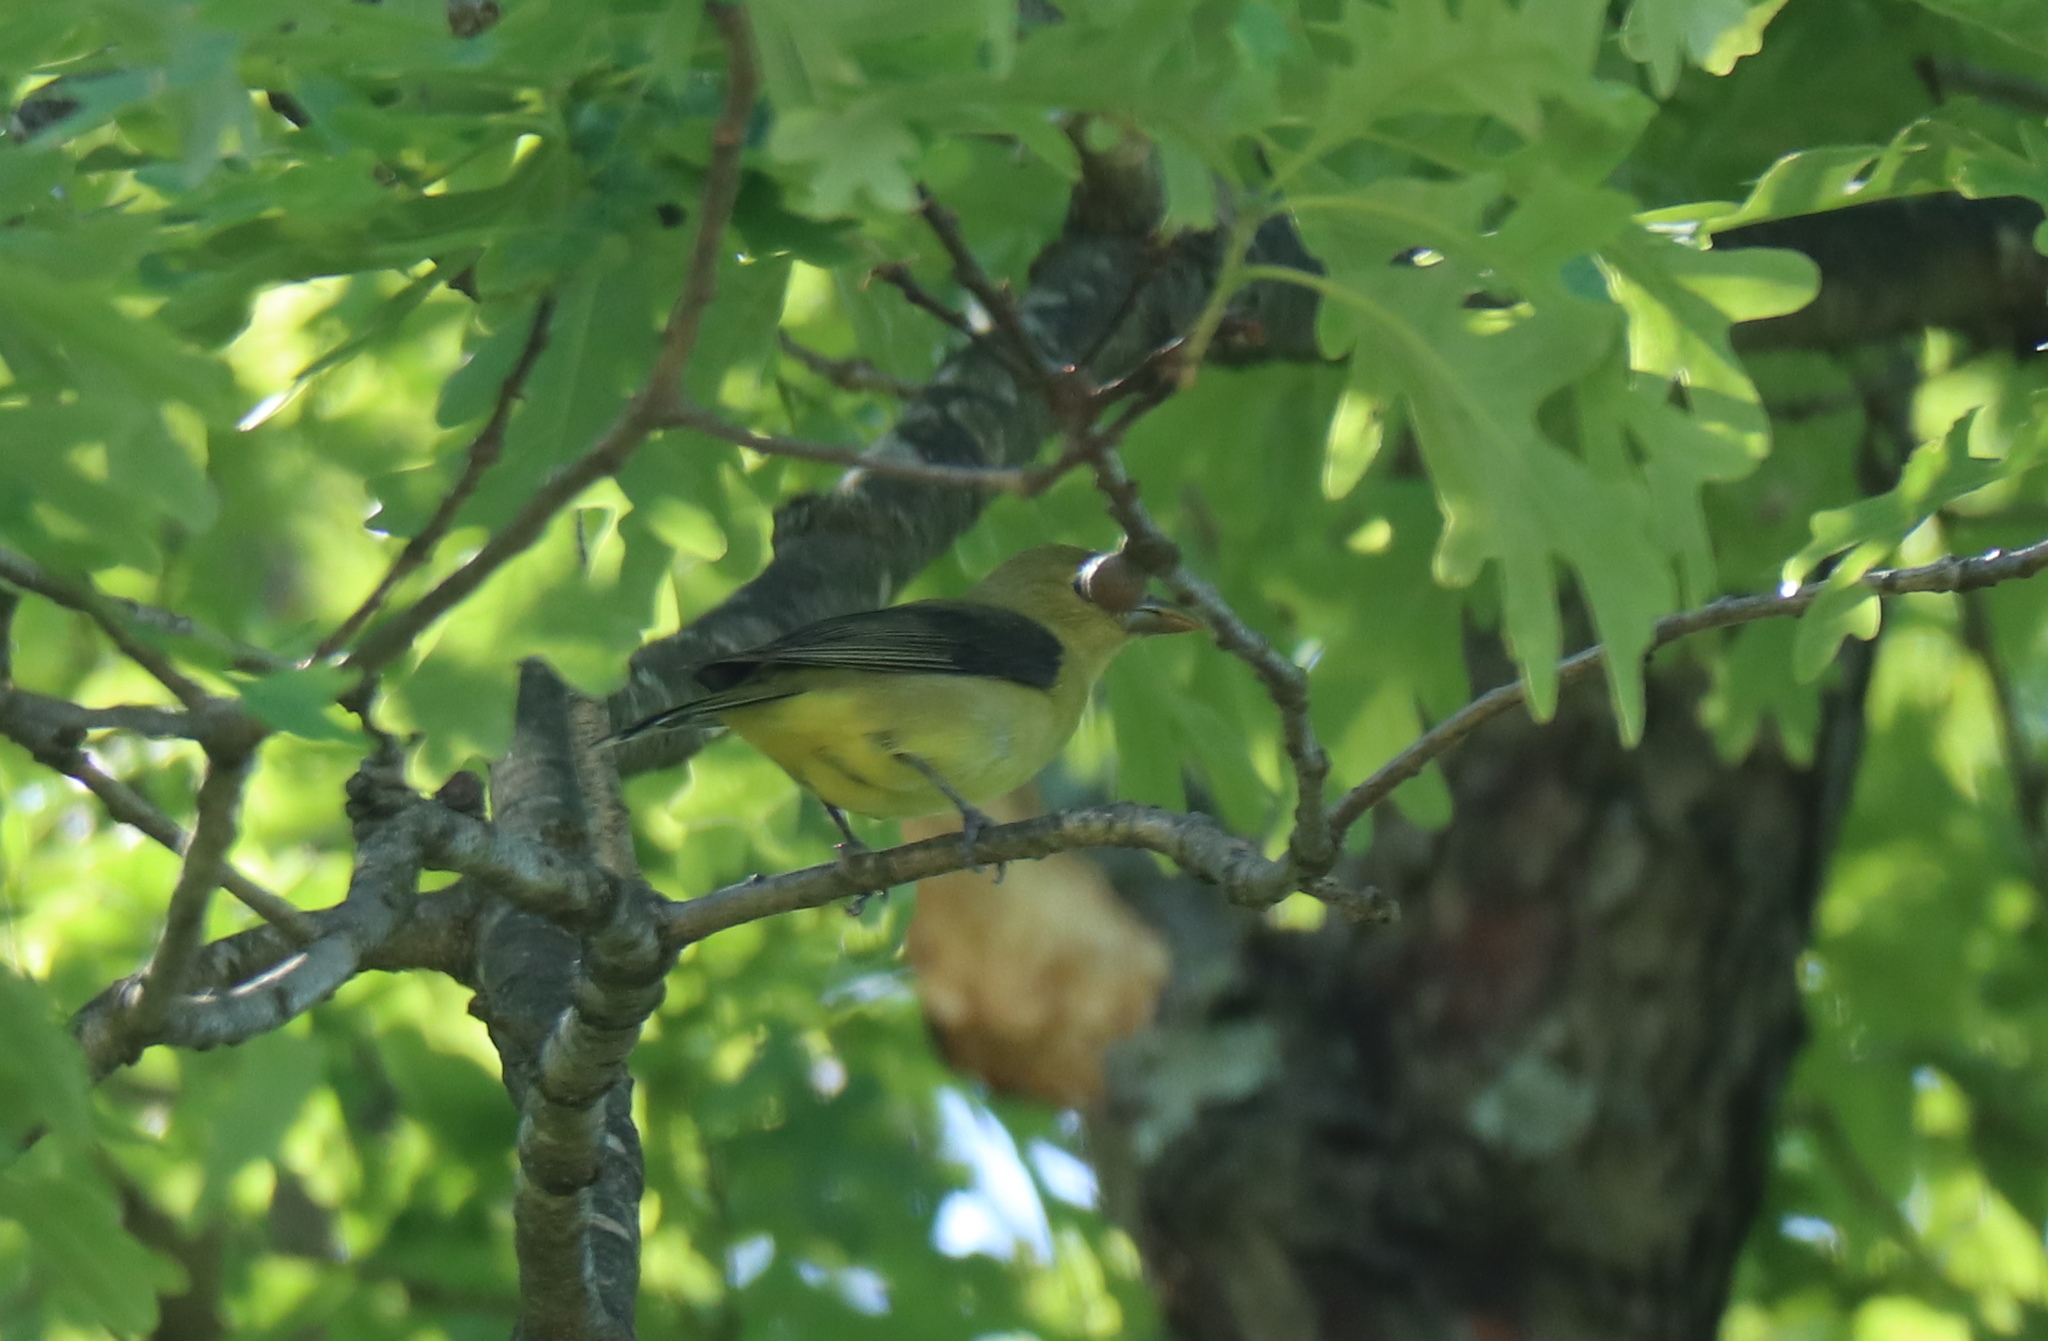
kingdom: Animalia
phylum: Arthropoda
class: Insecta
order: Hymenoptera
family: Cynipidae
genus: Disholcaspis
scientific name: Disholcaspis quercusglobulus
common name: Round bullet gall wasp
